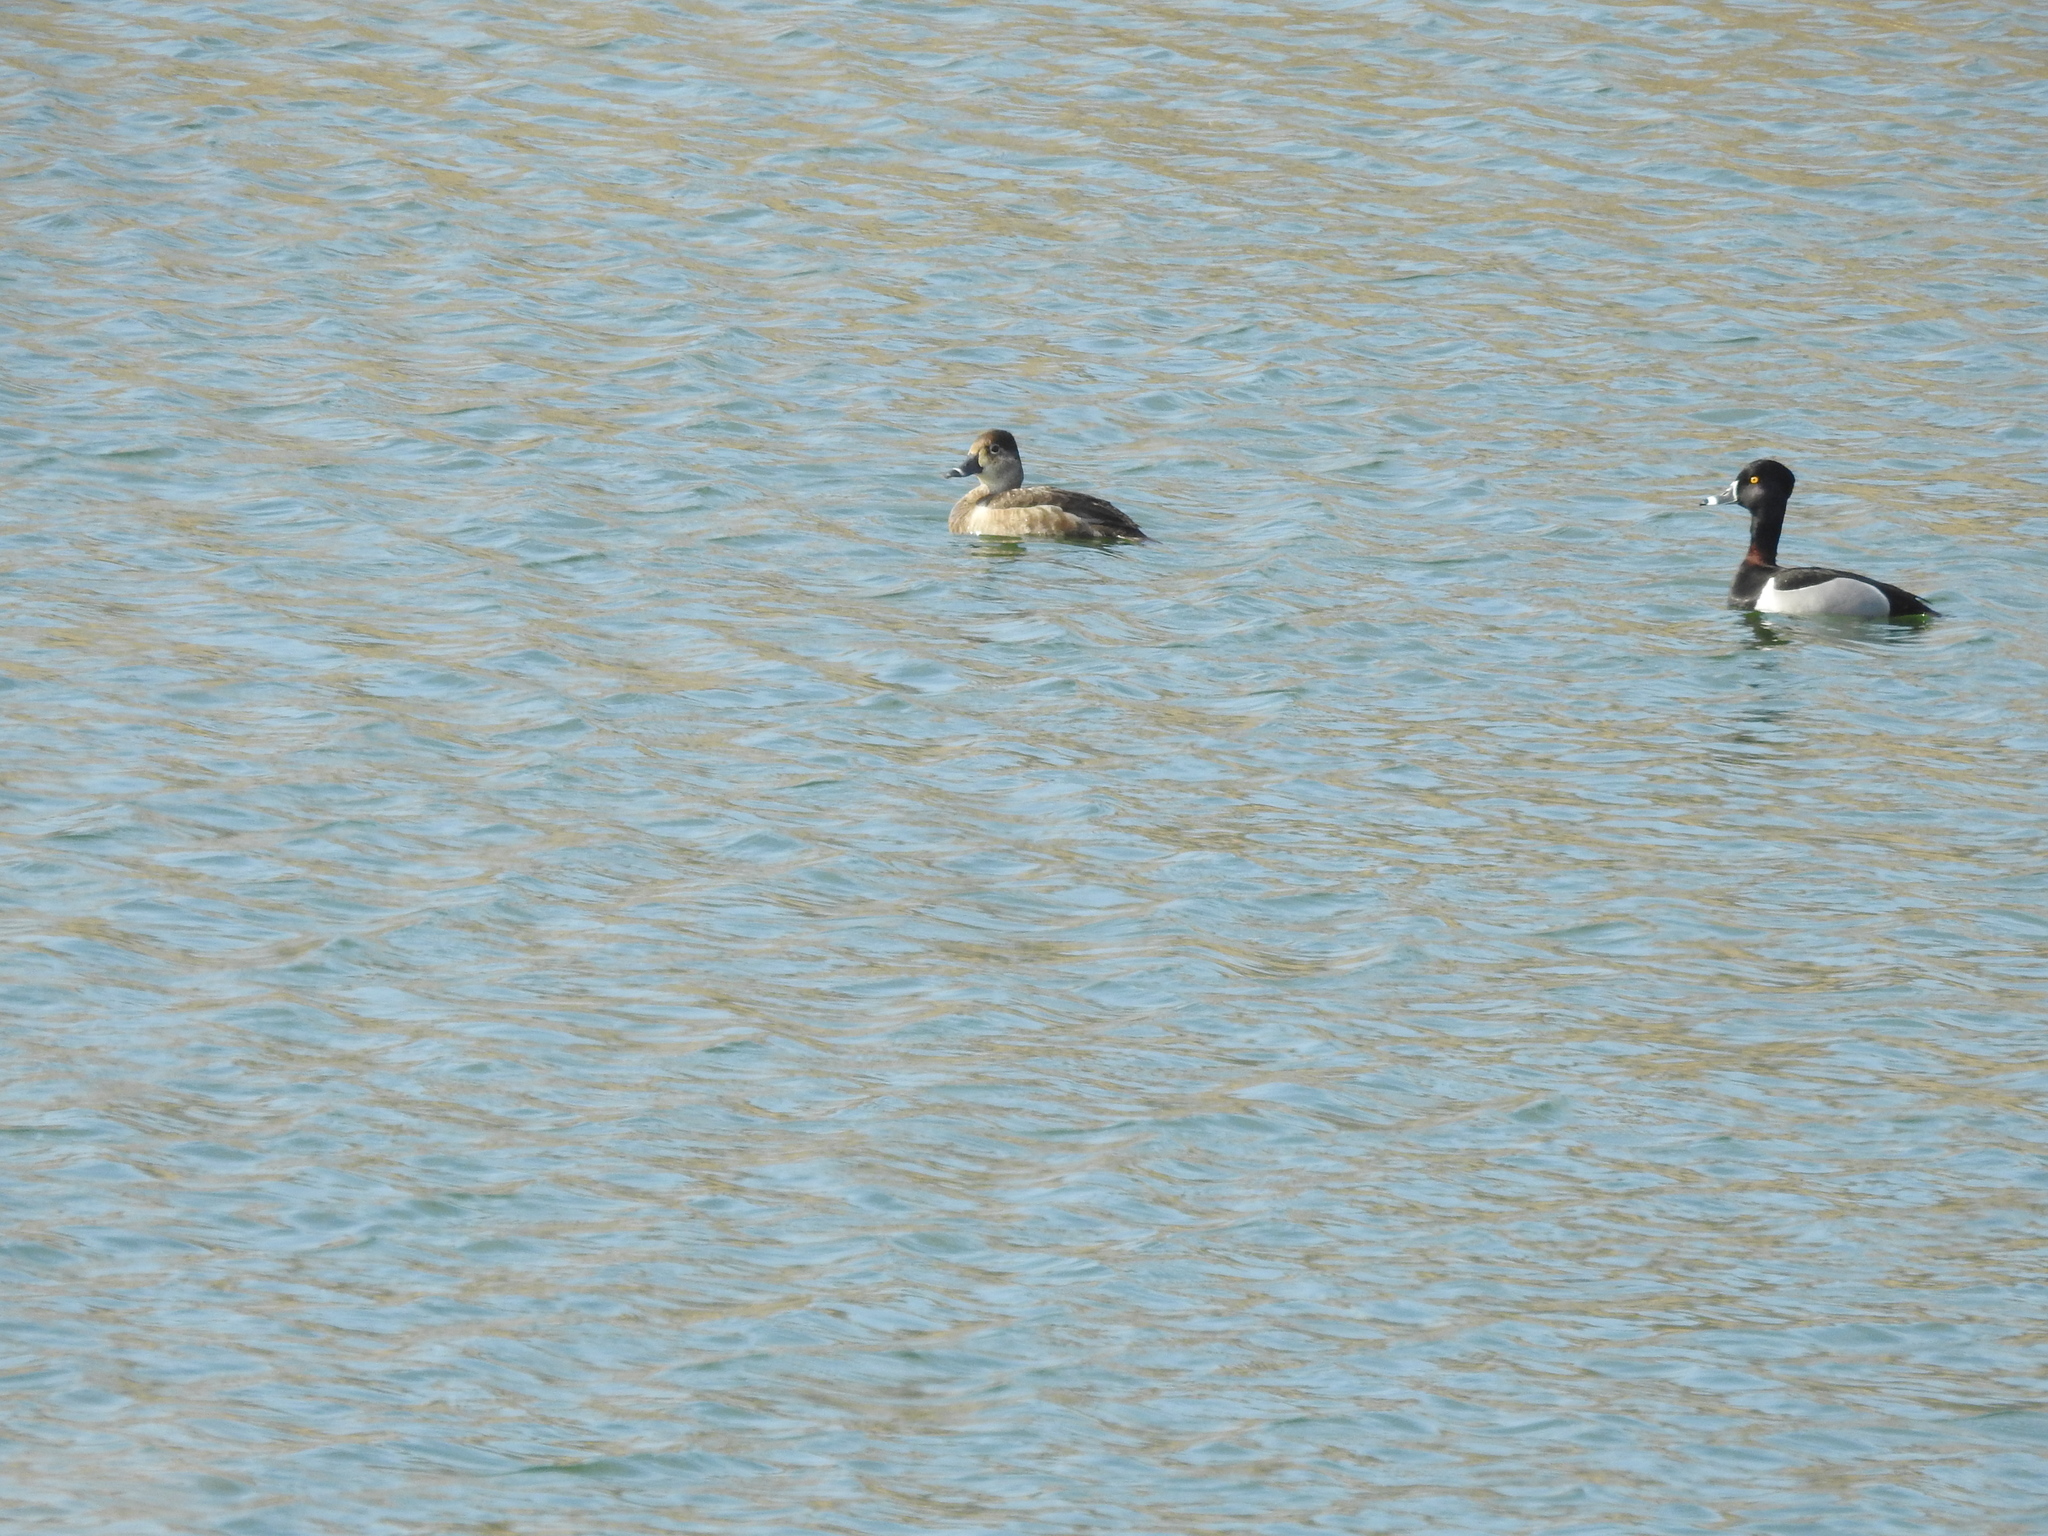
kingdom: Animalia
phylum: Chordata
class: Aves
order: Anseriformes
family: Anatidae
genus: Aythya
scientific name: Aythya collaris
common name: Ring-necked duck
